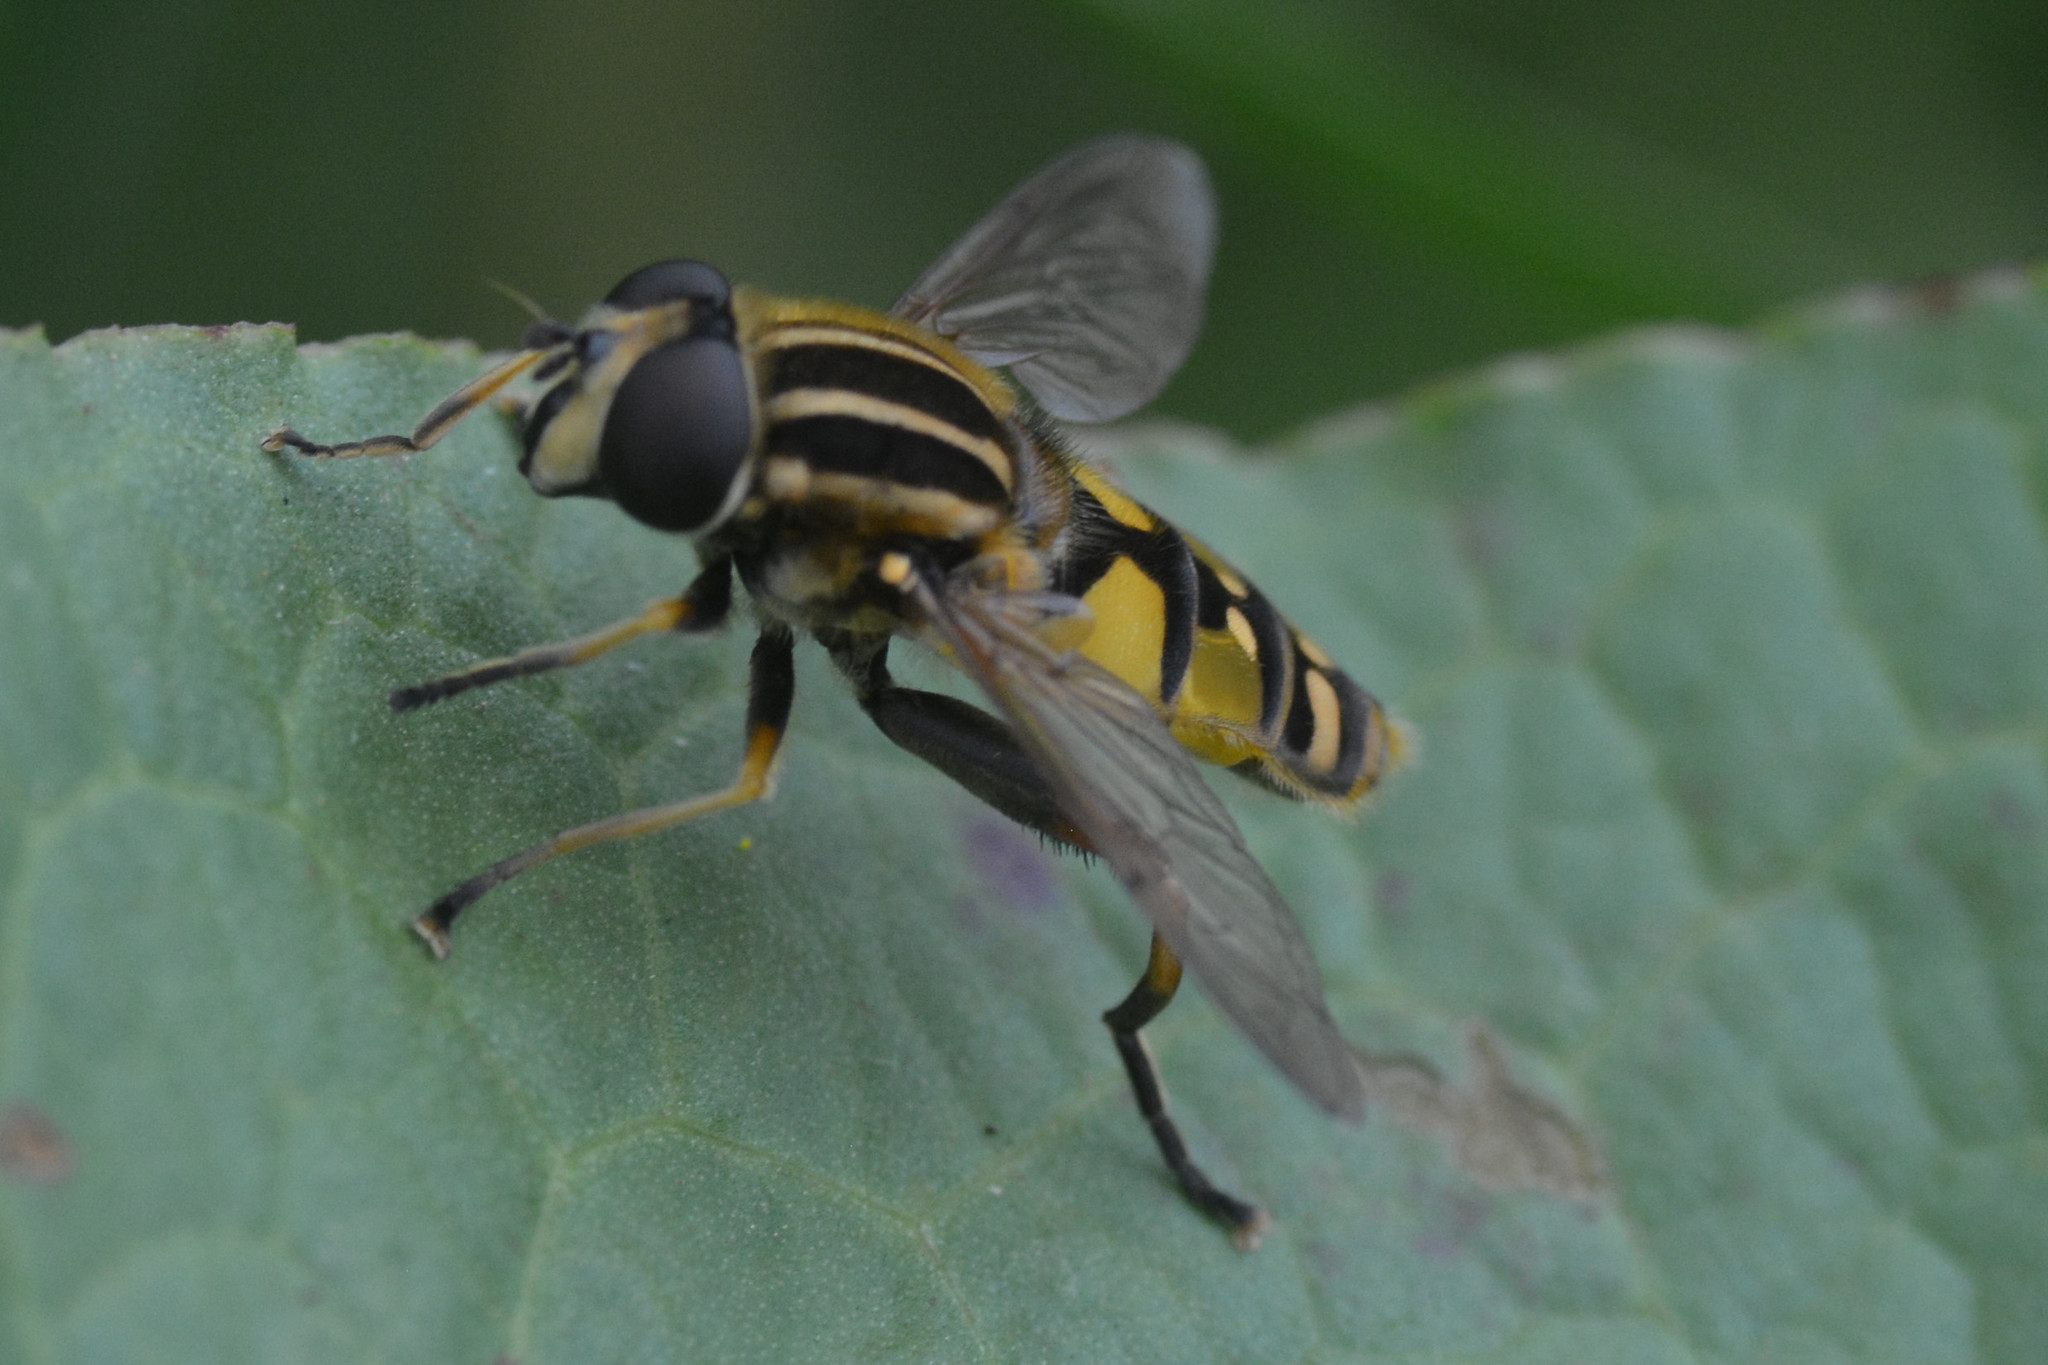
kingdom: Animalia
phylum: Arthropoda
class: Insecta
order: Diptera
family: Syrphidae
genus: Helophilus
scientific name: Helophilus pendulus
